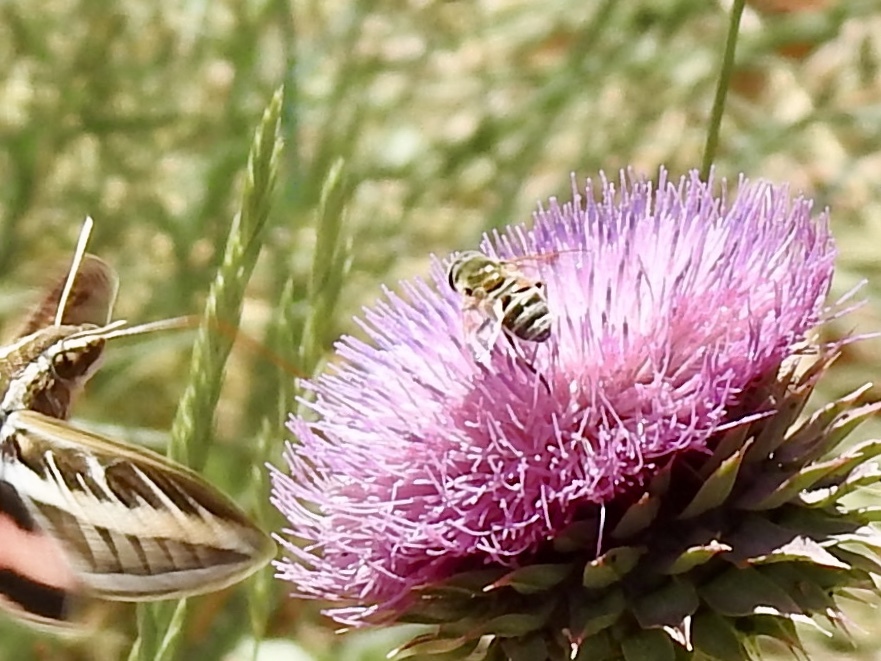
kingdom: Animalia
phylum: Arthropoda
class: Insecta
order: Diptera
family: Syrphidae
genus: Eristalis
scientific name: Eristalis stipator
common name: Yellow-shouldered drone fly
